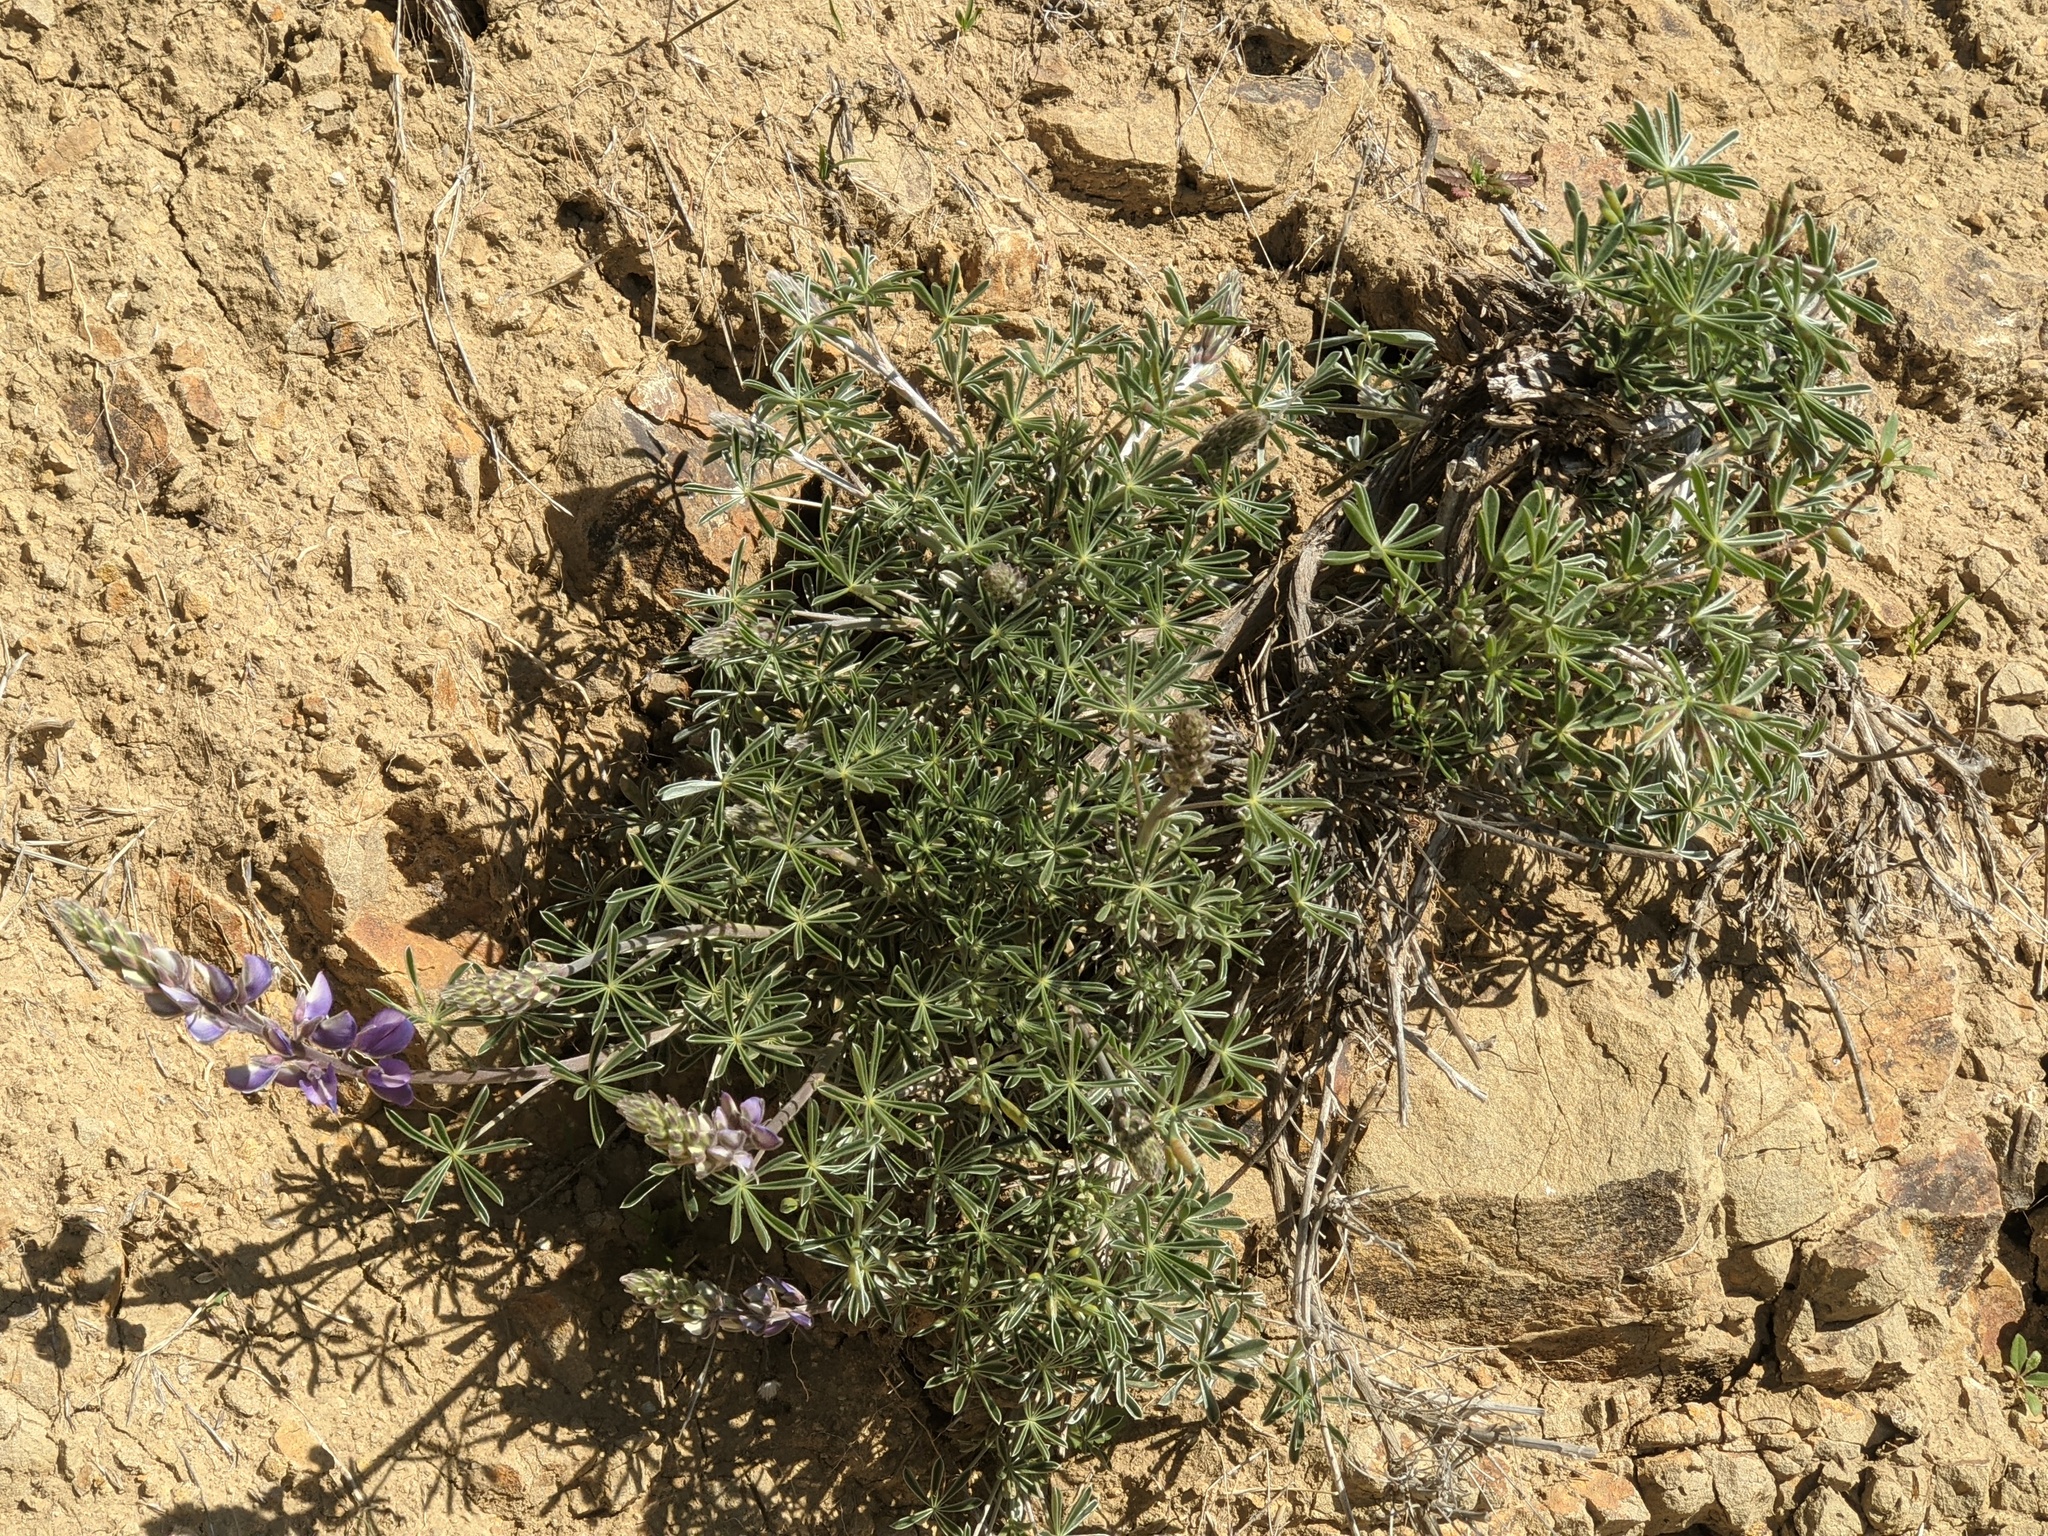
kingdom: Plantae
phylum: Tracheophyta
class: Magnoliopsida
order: Fabales
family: Fabaceae
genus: Lupinus
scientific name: Lupinus albifrons
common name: Foothill lupine
